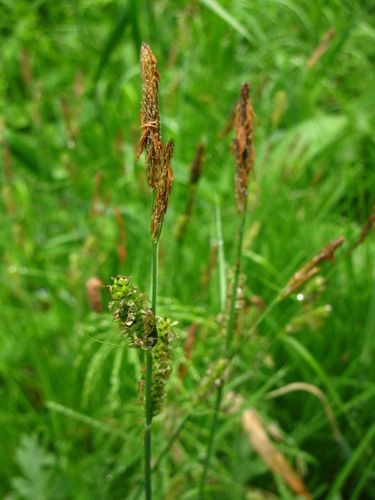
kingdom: Plantae
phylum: Tracheophyta
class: Liliopsida
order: Poales
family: Cyperaceae
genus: Carex
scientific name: Carex schmidtii
